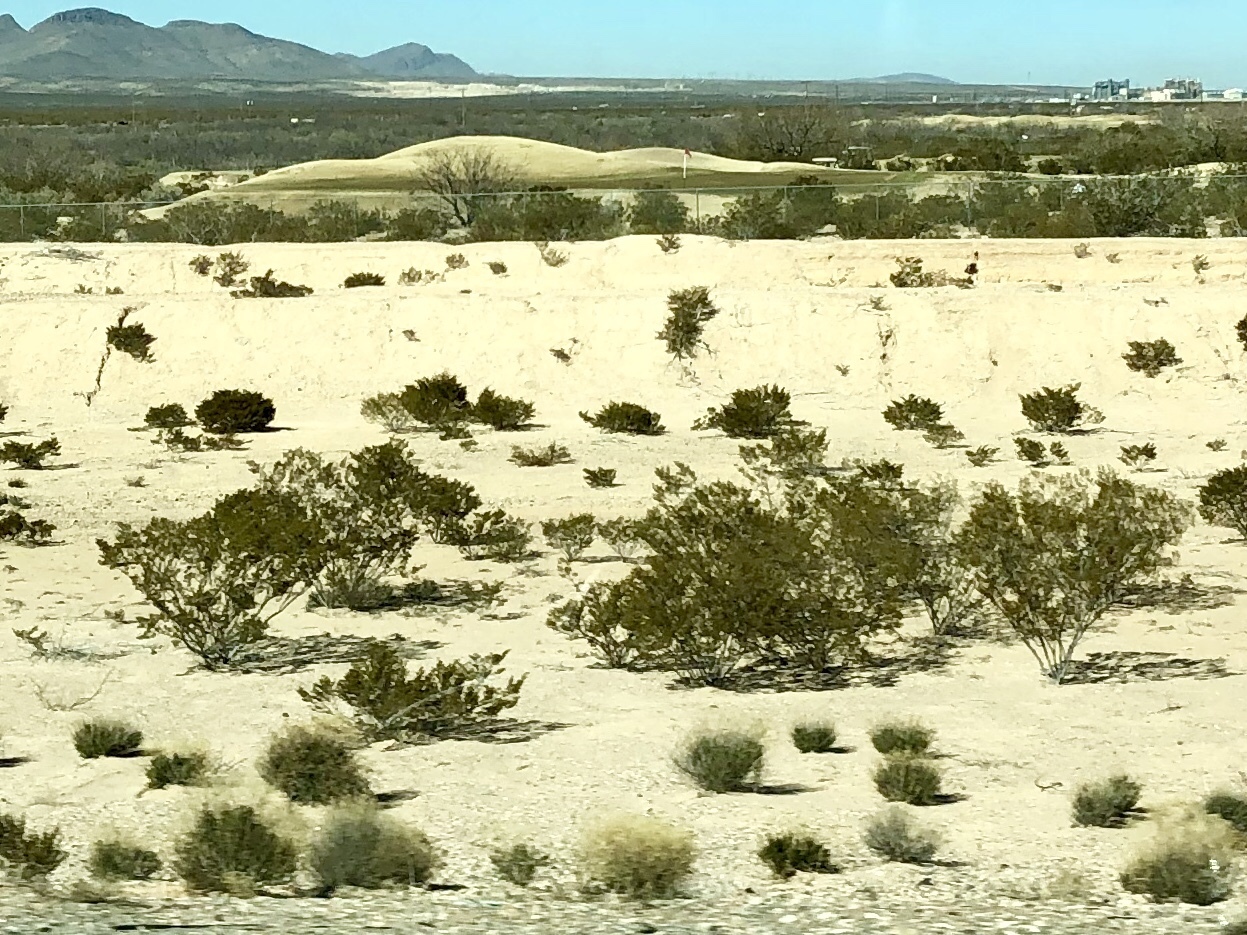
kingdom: Plantae
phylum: Tracheophyta
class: Magnoliopsida
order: Zygophyllales
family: Zygophyllaceae
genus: Larrea
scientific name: Larrea tridentata
